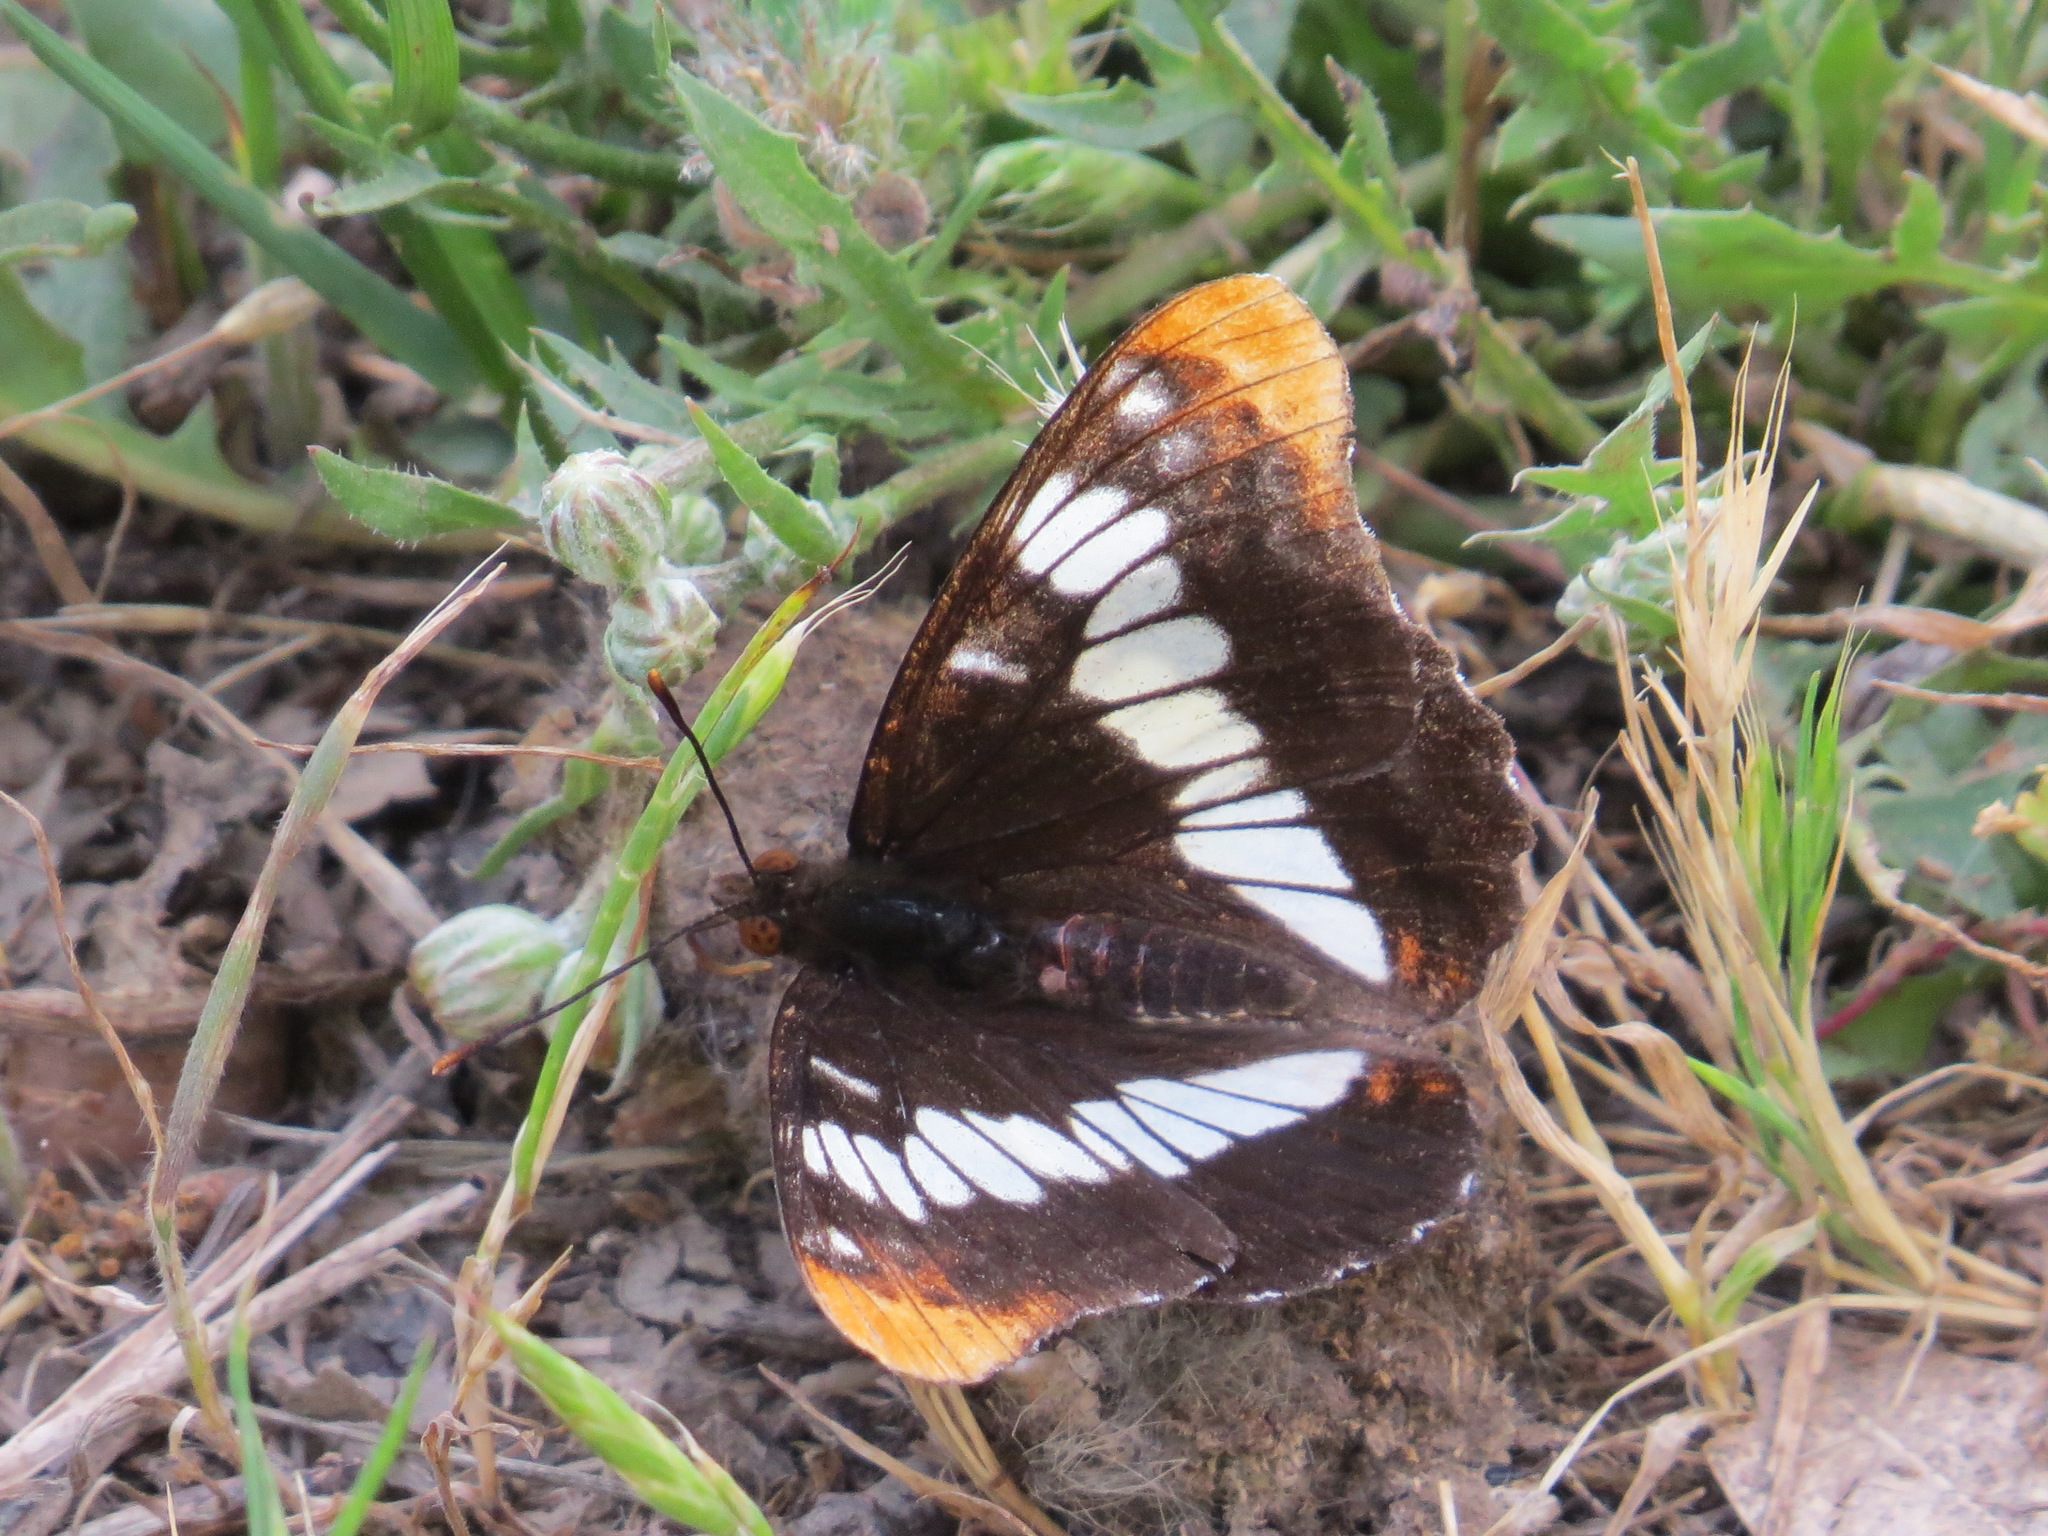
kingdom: Animalia
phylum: Arthropoda
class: Insecta
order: Lepidoptera
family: Nymphalidae
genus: Limenitis
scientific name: Limenitis lorquini
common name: Lorquin's admiral
